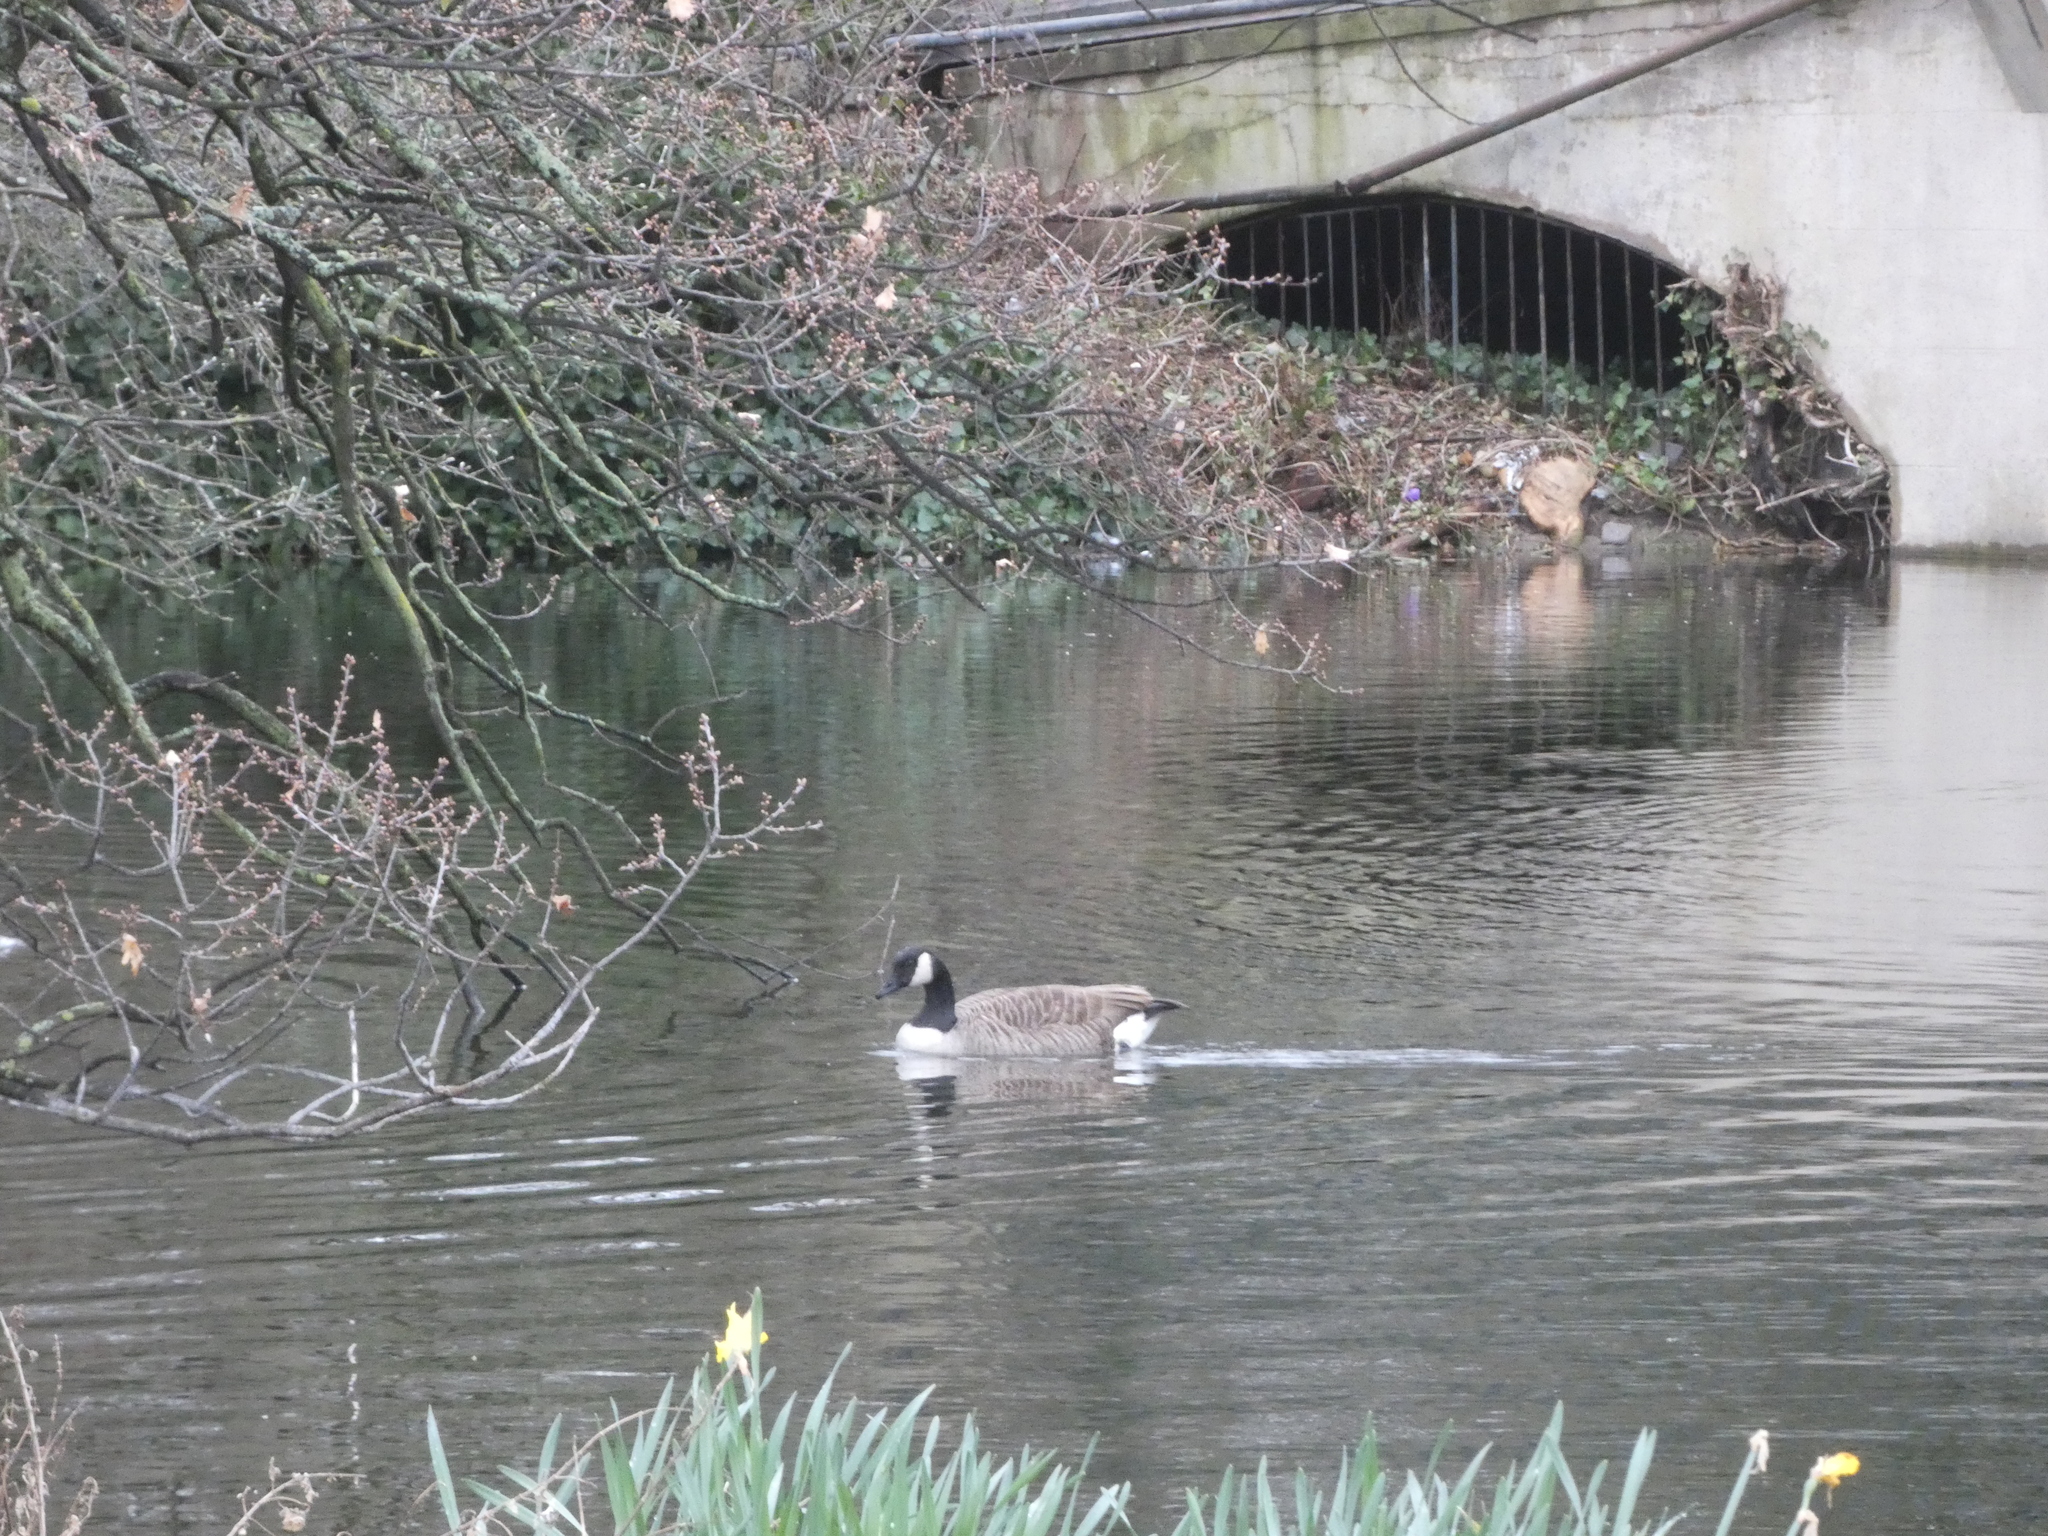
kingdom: Animalia
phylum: Chordata
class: Aves
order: Anseriformes
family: Anatidae
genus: Branta
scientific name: Branta canadensis
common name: Canada goose
